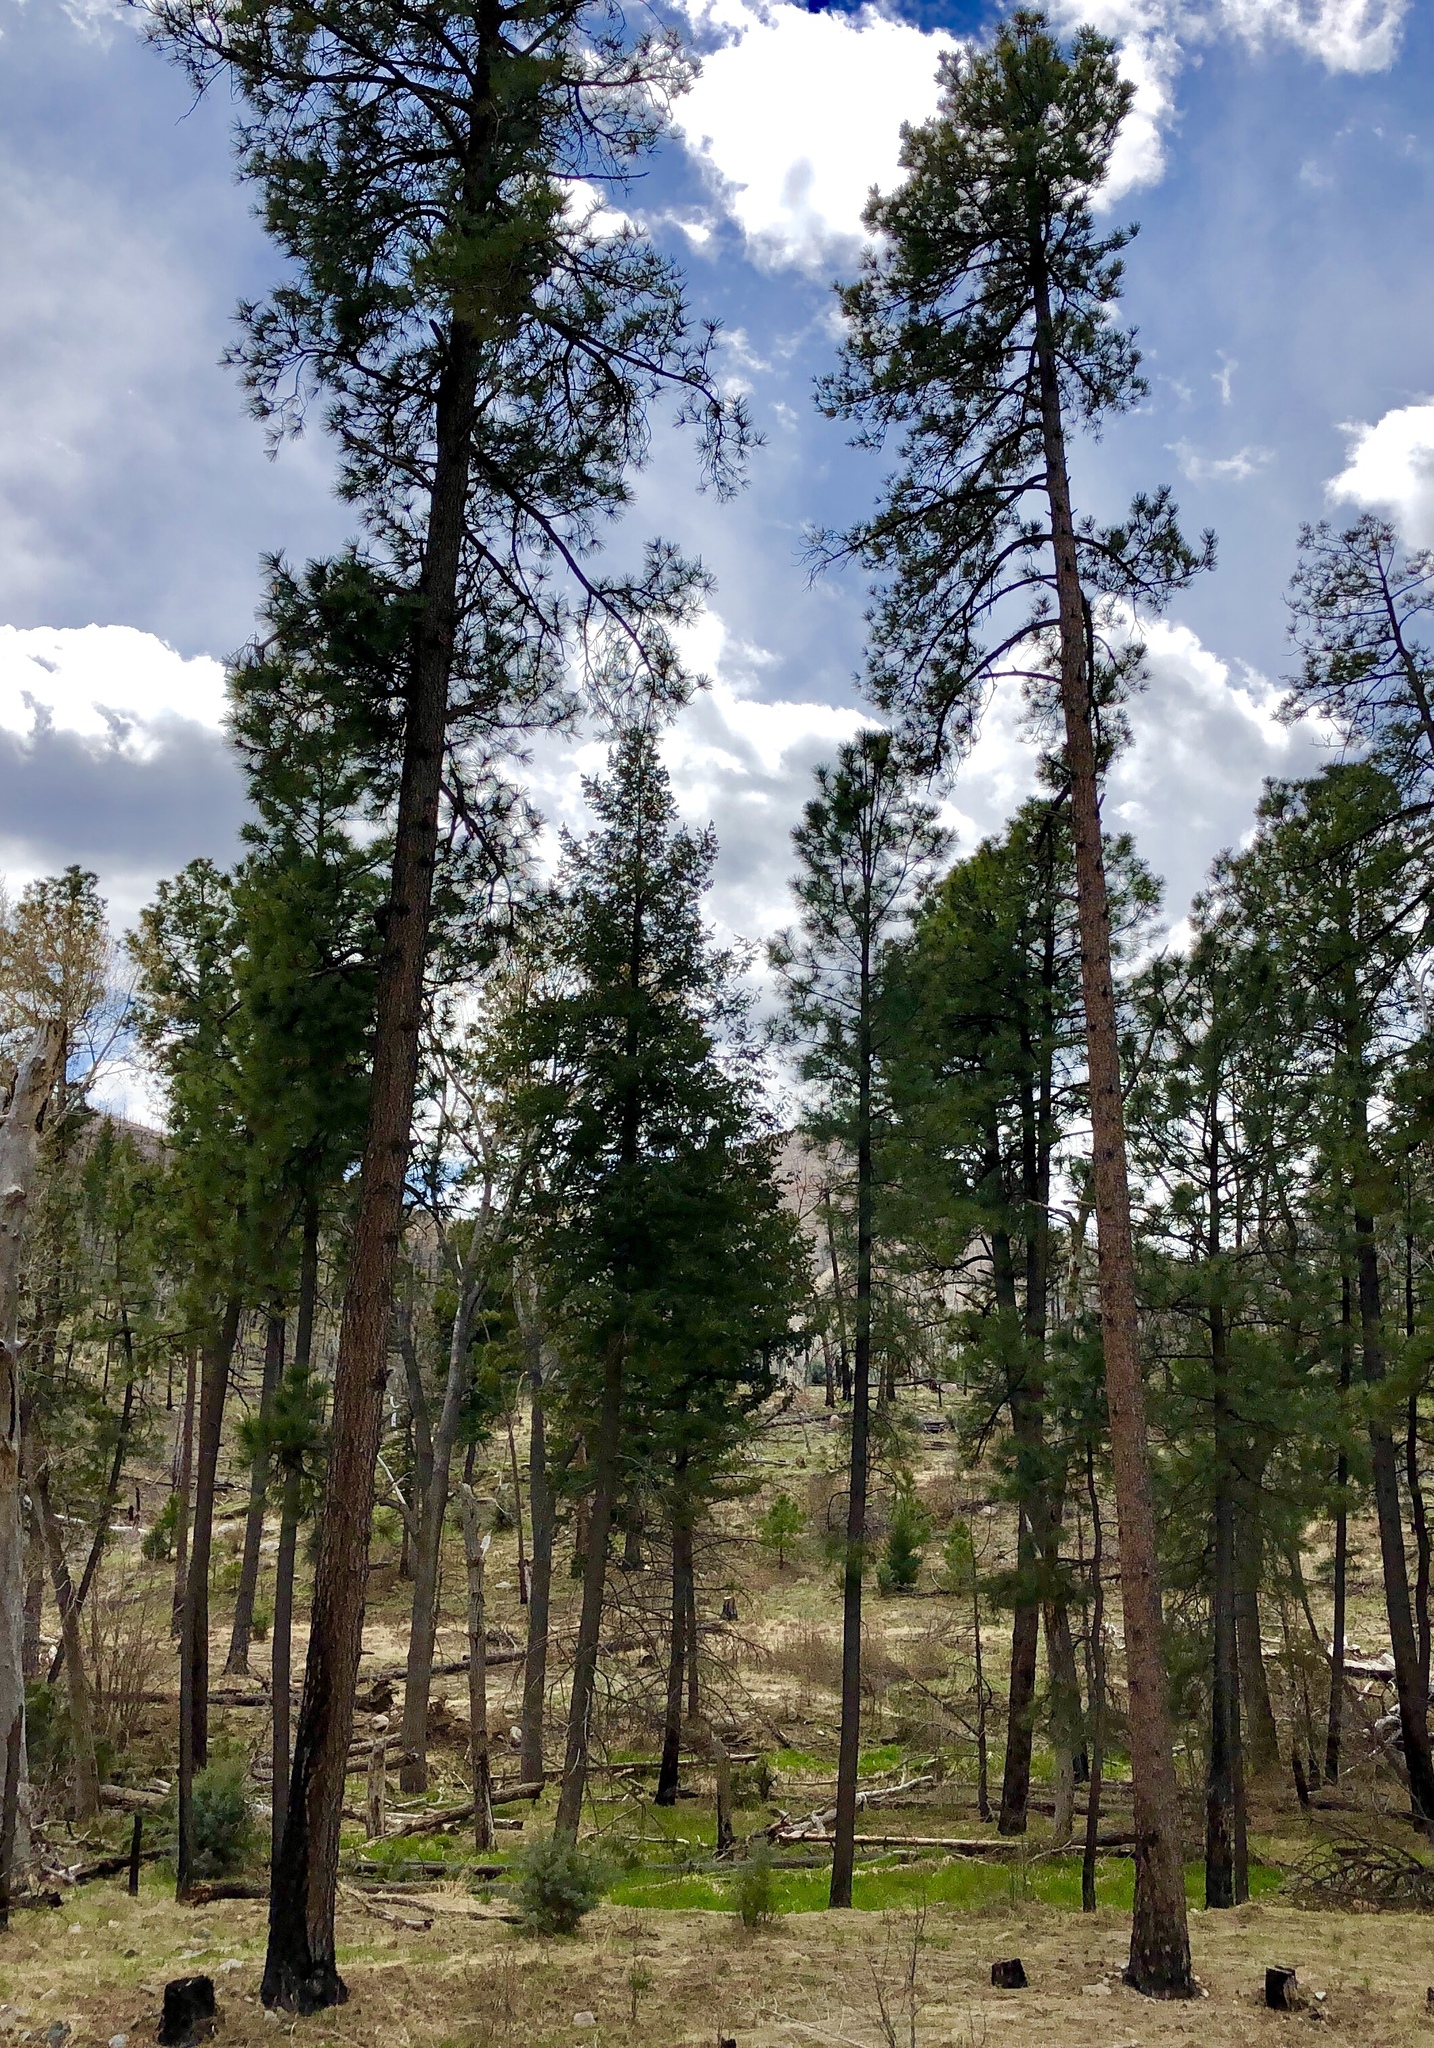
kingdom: Plantae
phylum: Tracheophyta
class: Pinopsida
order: Pinales
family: Pinaceae
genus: Pinus
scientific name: Pinus ponderosa
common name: Western yellow-pine
